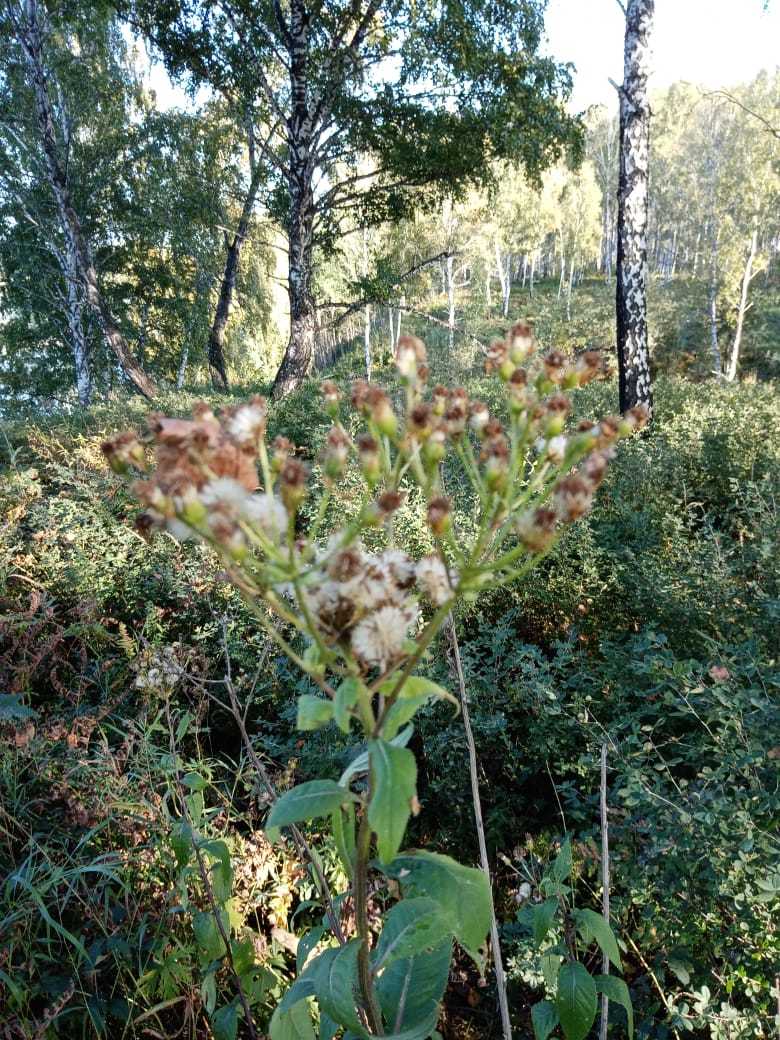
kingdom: Plantae
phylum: Tracheophyta
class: Magnoliopsida
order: Asterales
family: Asteraceae
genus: Senecio
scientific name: Senecio nemorensis
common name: Alpine ragwort
